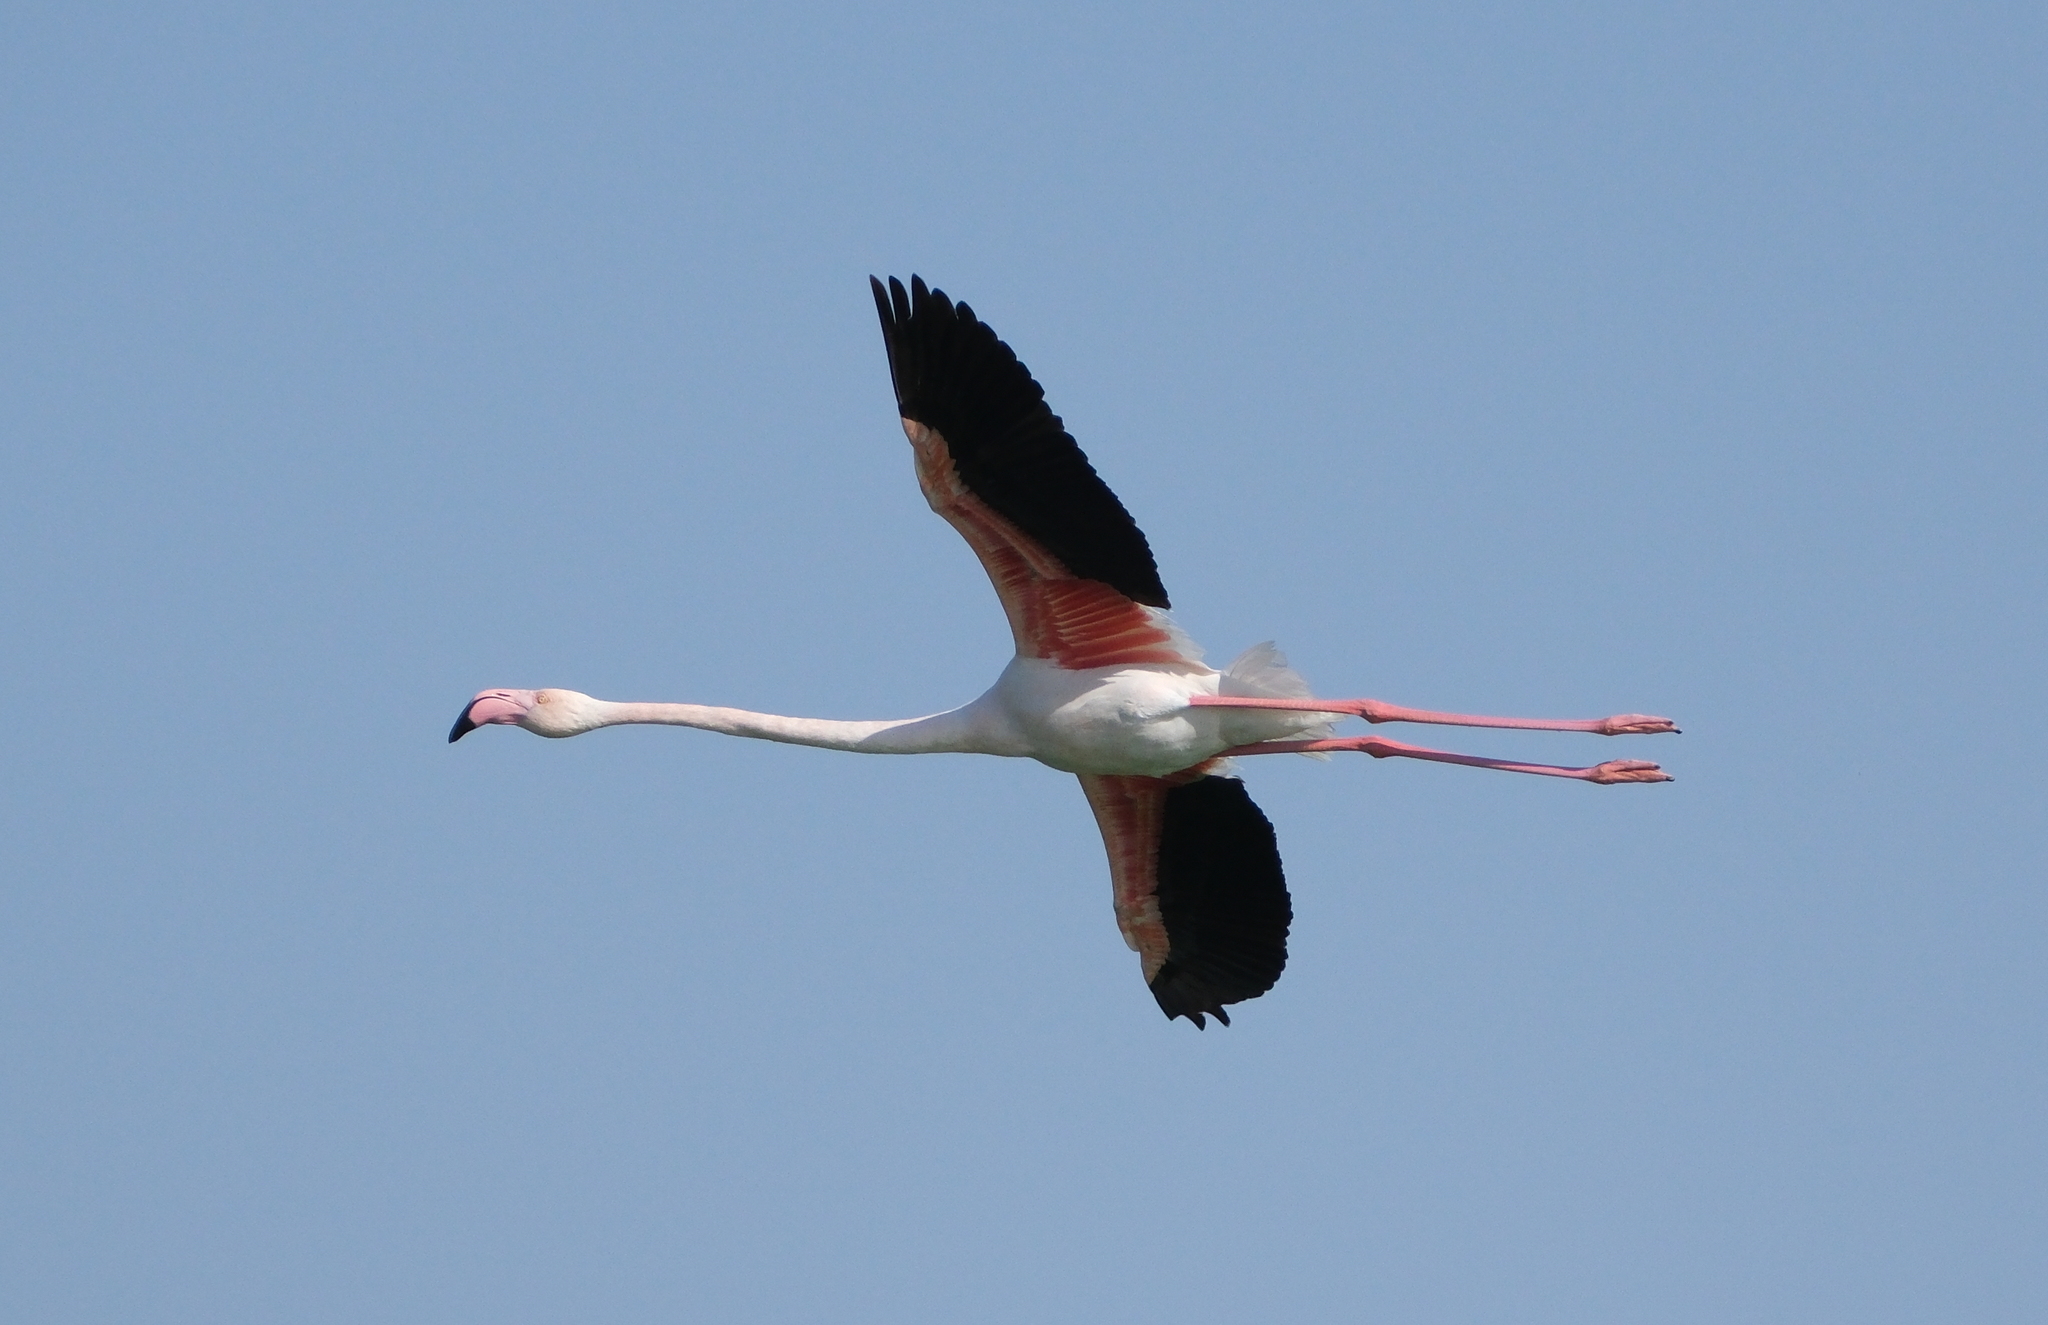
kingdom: Animalia
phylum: Chordata
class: Aves
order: Phoenicopteriformes
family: Phoenicopteridae
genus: Phoenicopterus
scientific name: Phoenicopterus roseus
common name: Greater flamingo
